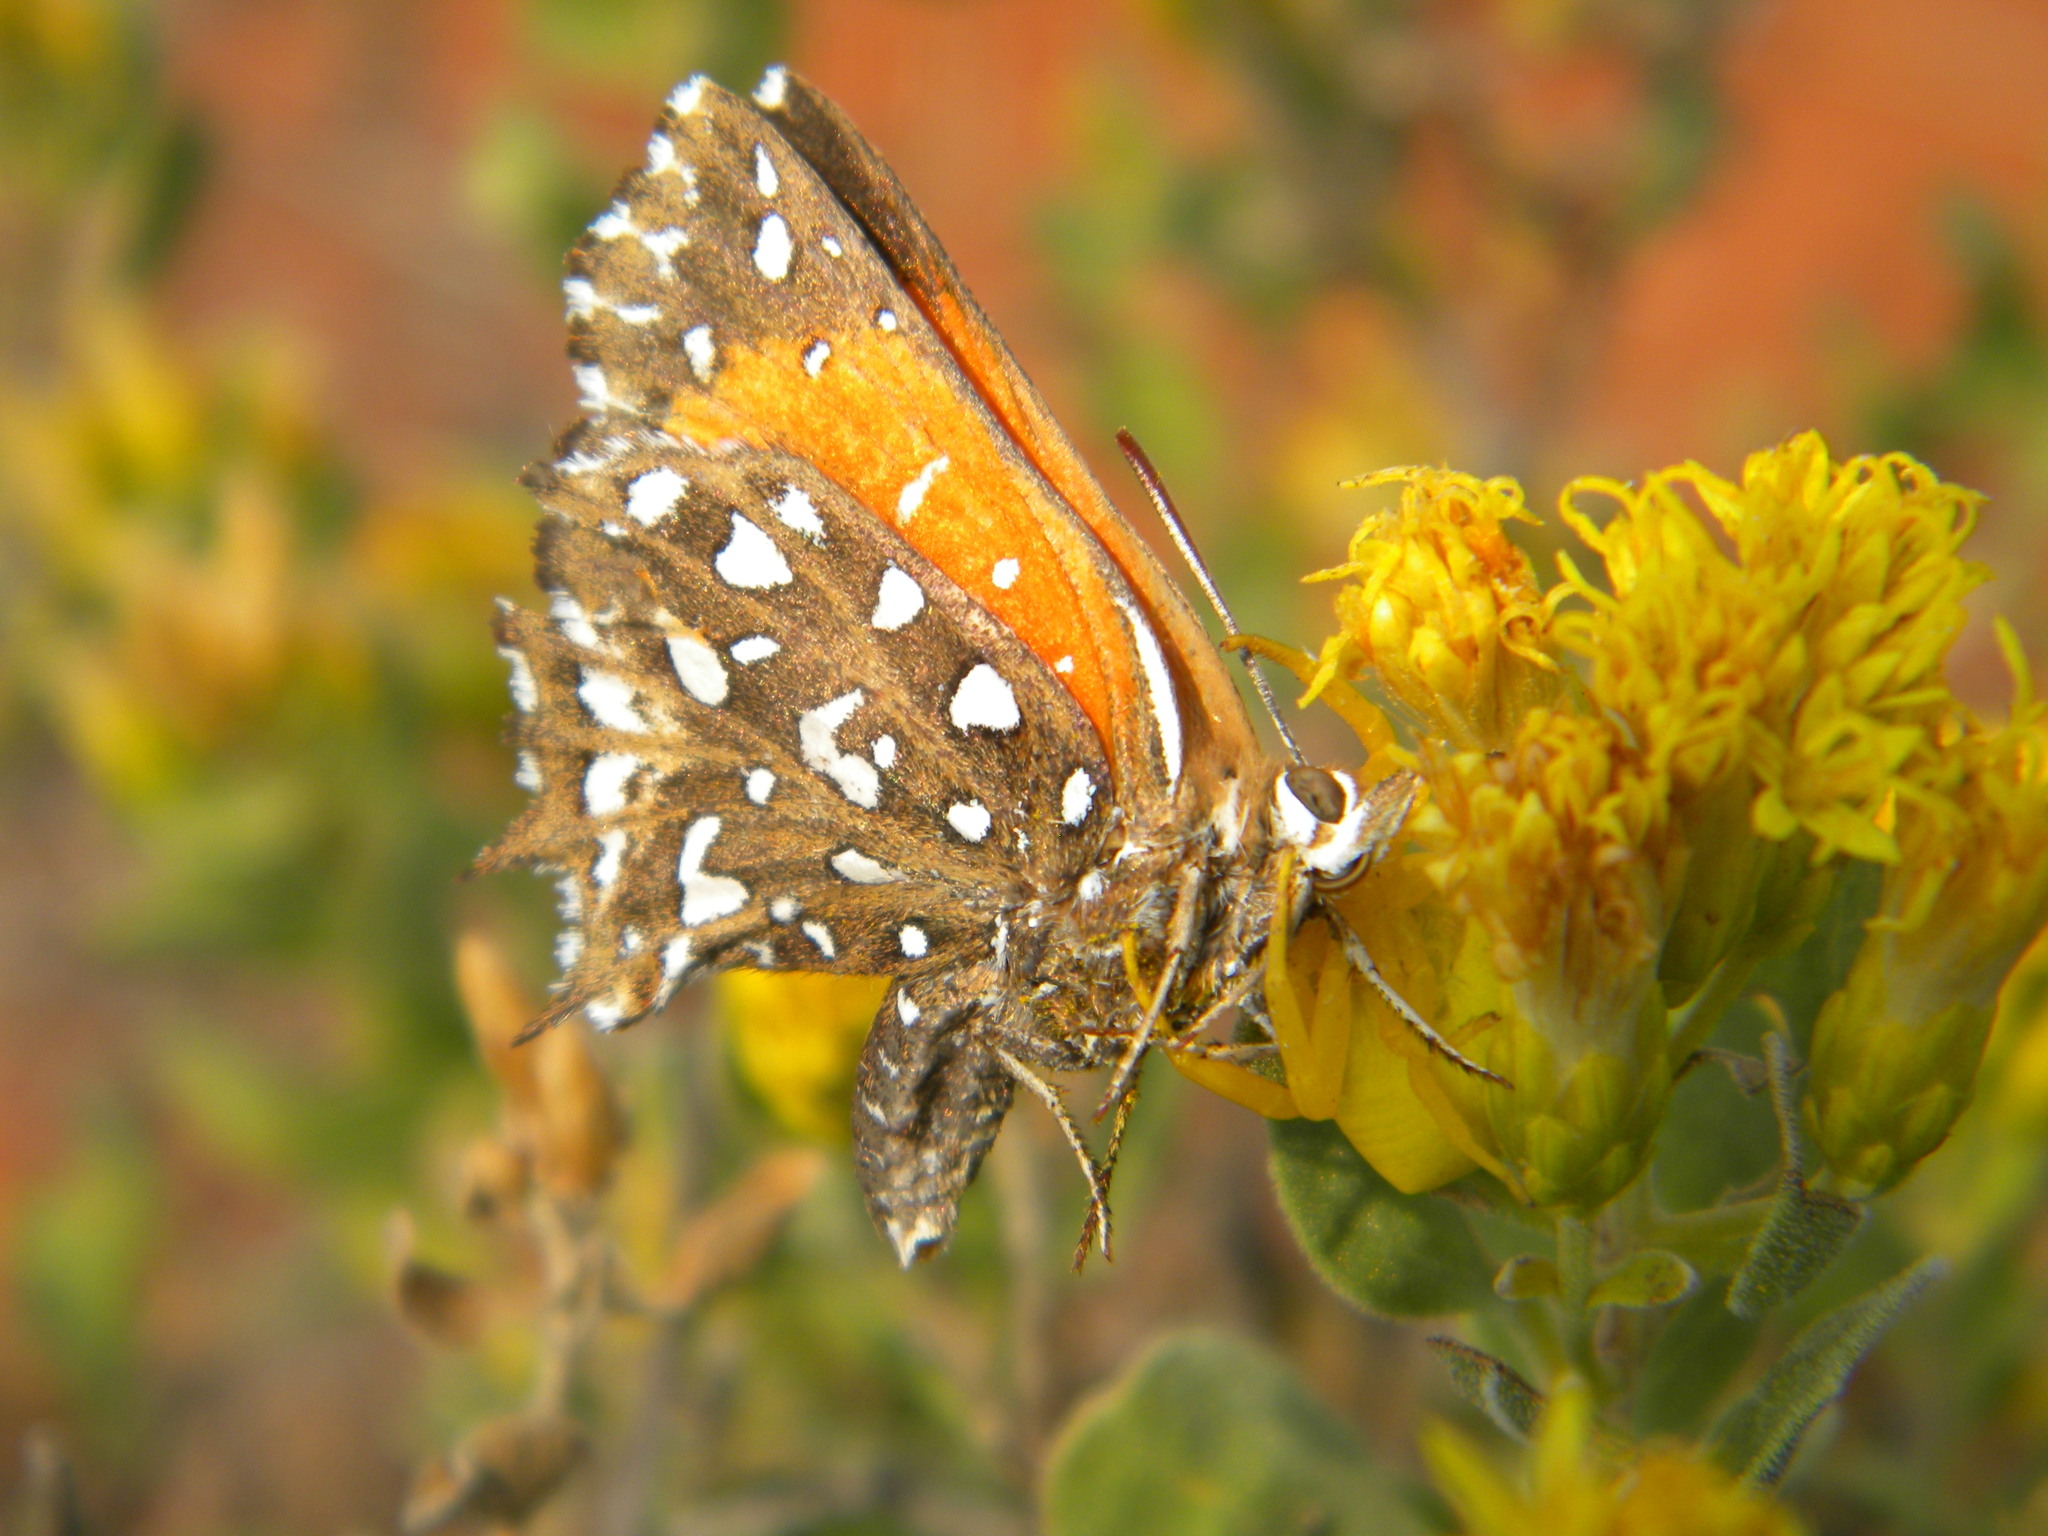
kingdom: Animalia
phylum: Arthropoda
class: Insecta
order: Lepidoptera
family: Lycaenidae
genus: Argyraspodes
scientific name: Argyraspodes argyraspis
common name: Warrior silver-spotted copper
